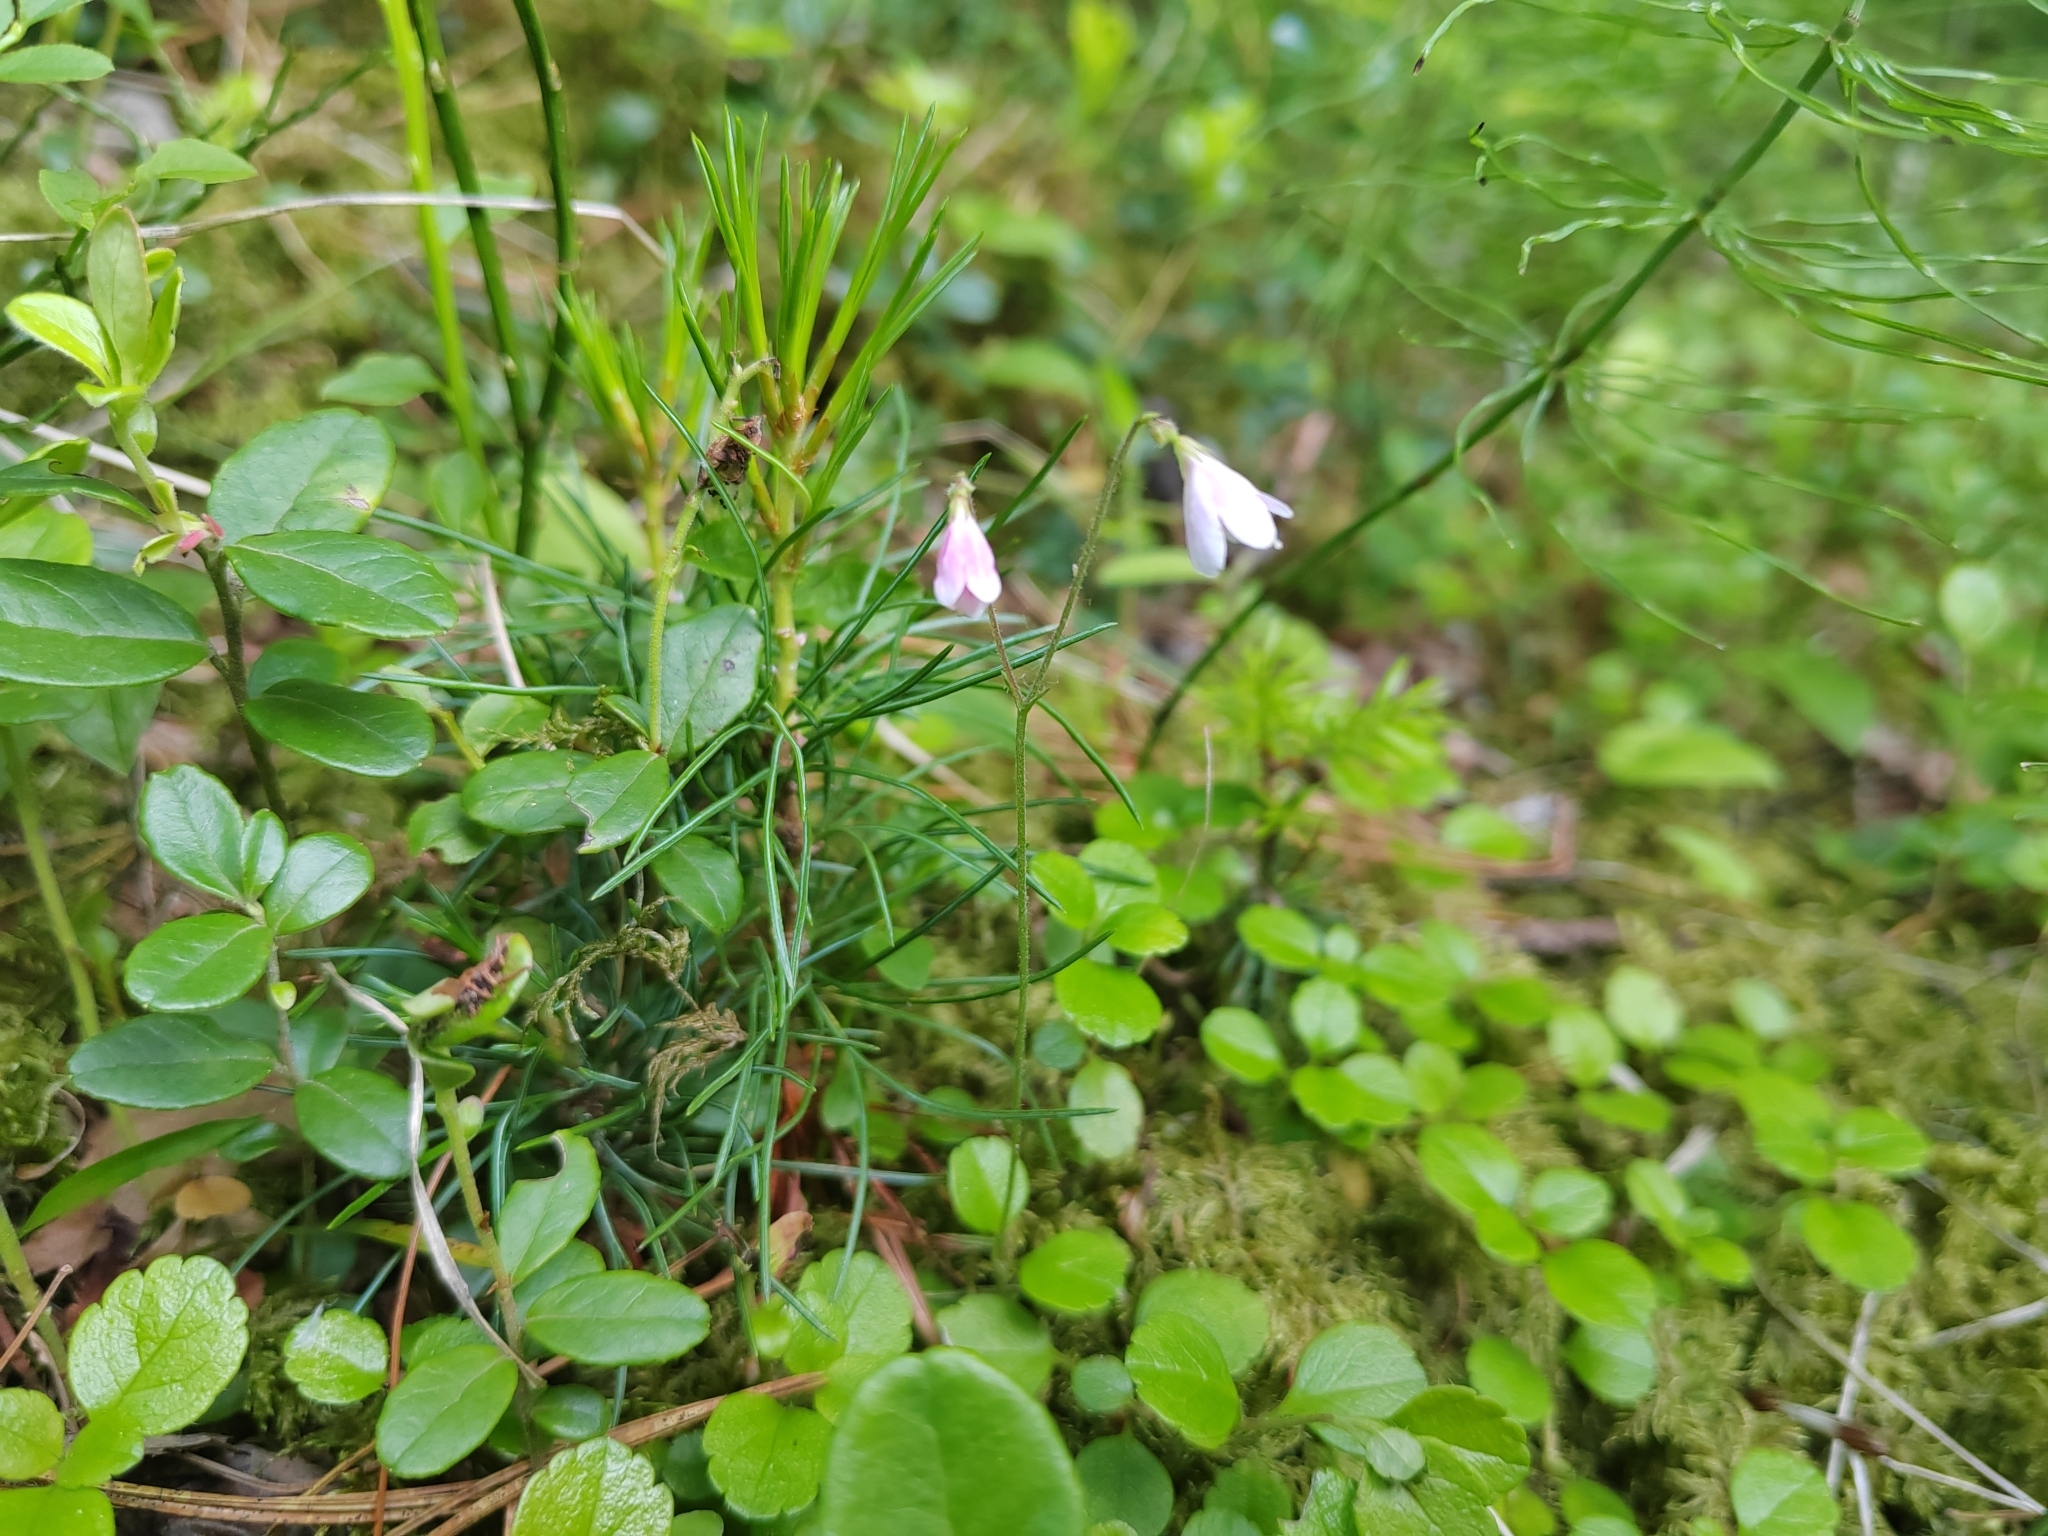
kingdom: Plantae
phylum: Tracheophyta
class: Magnoliopsida
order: Dipsacales
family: Caprifoliaceae
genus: Linnaea
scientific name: Linnaea borealis
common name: Twinflower
